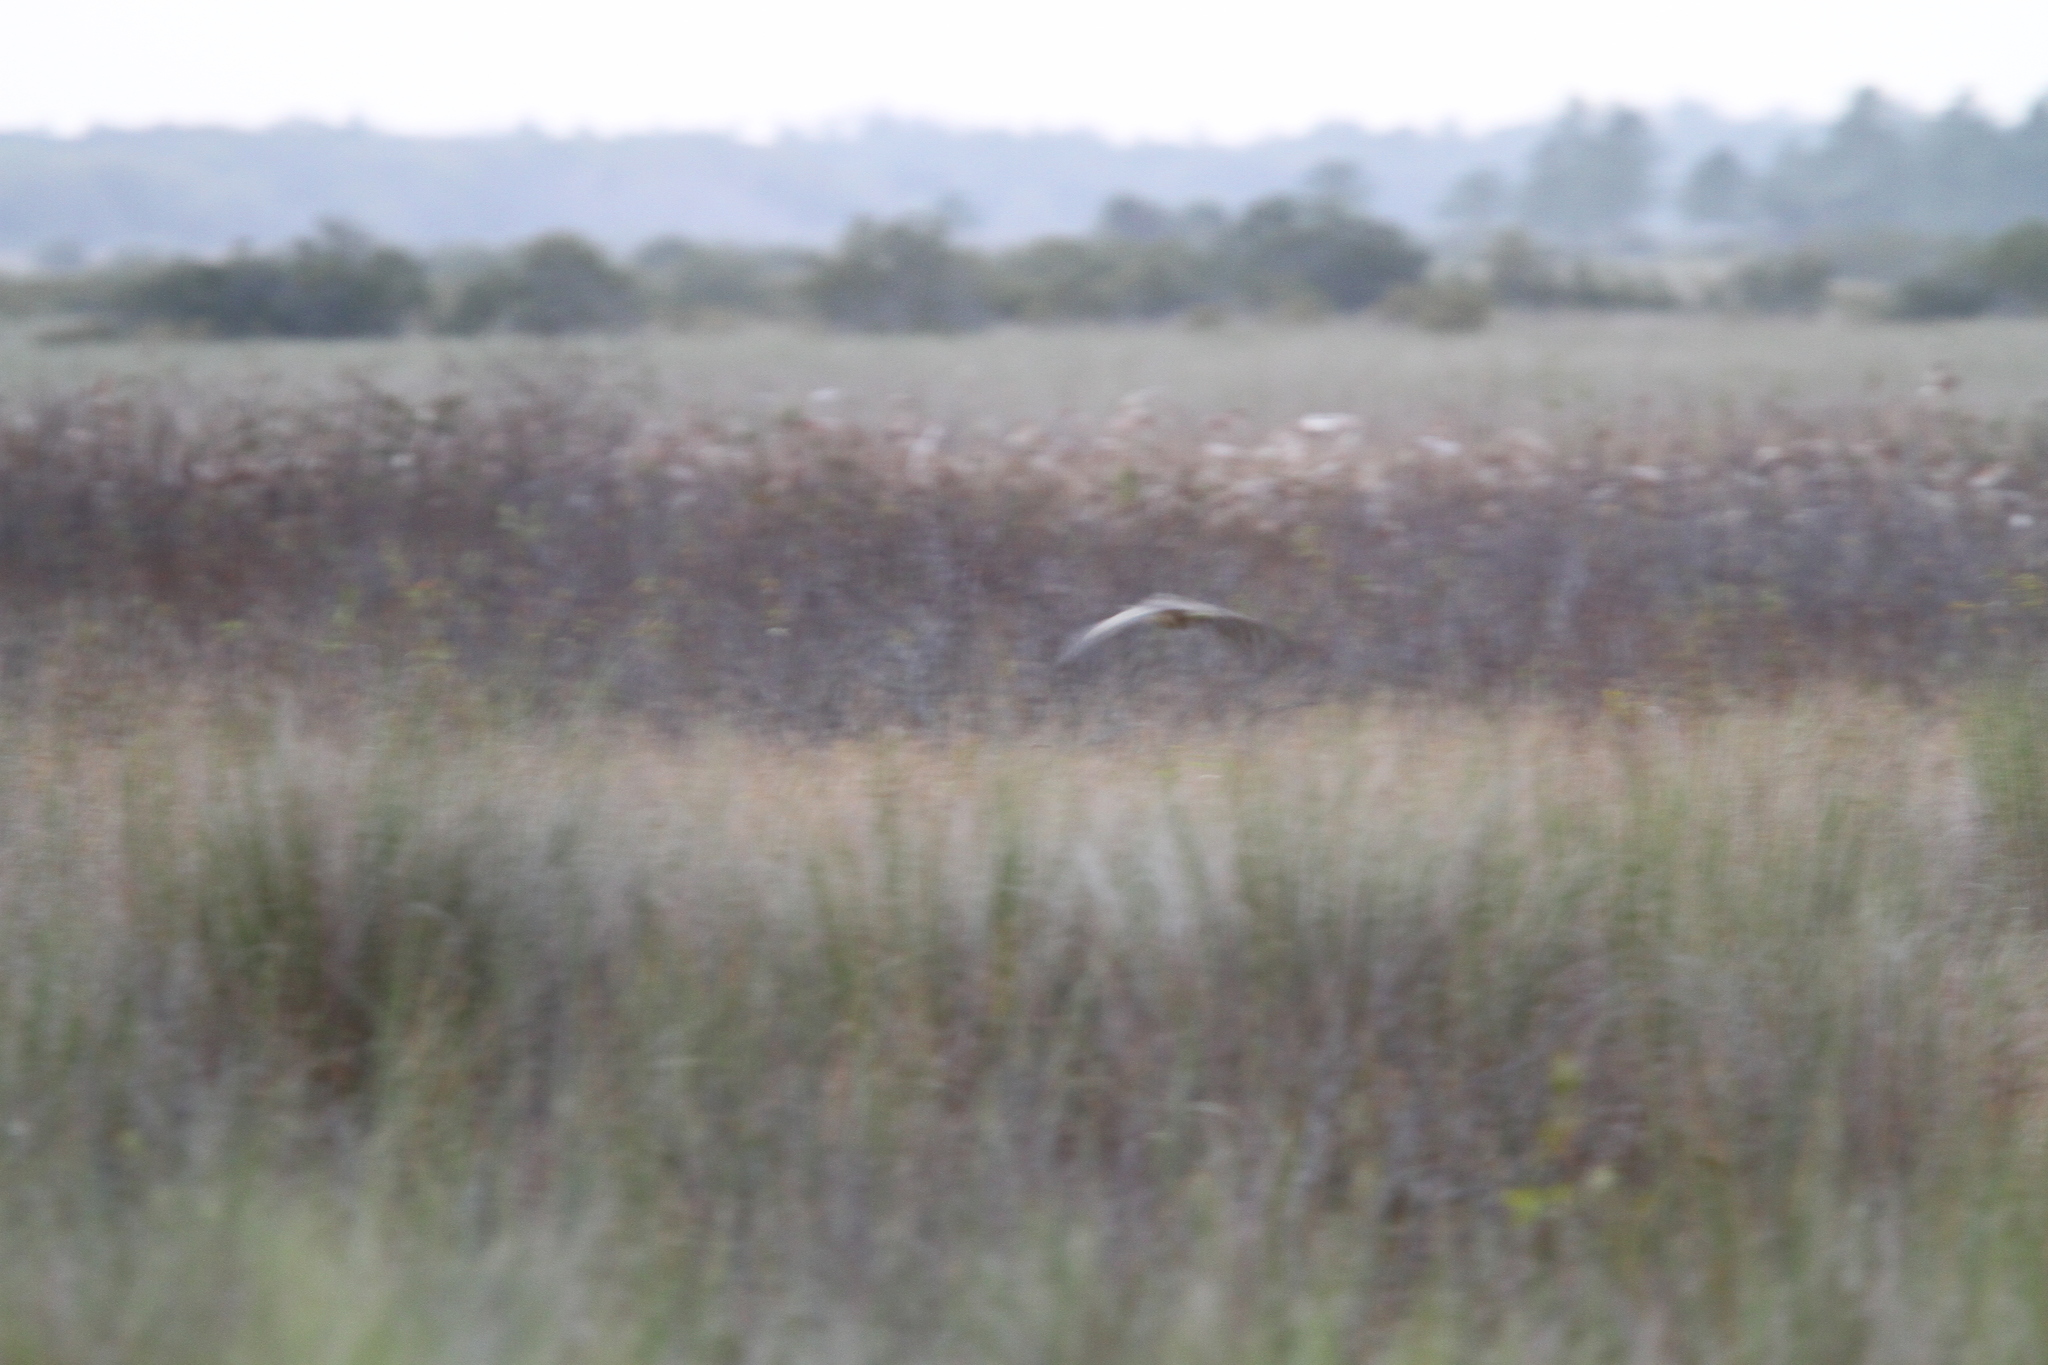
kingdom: Animalia
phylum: Chordata
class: Aves
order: Pelecaniformes
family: Ardeidae
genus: Botaurus
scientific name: Botaurus lentiginosus
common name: American bittern
